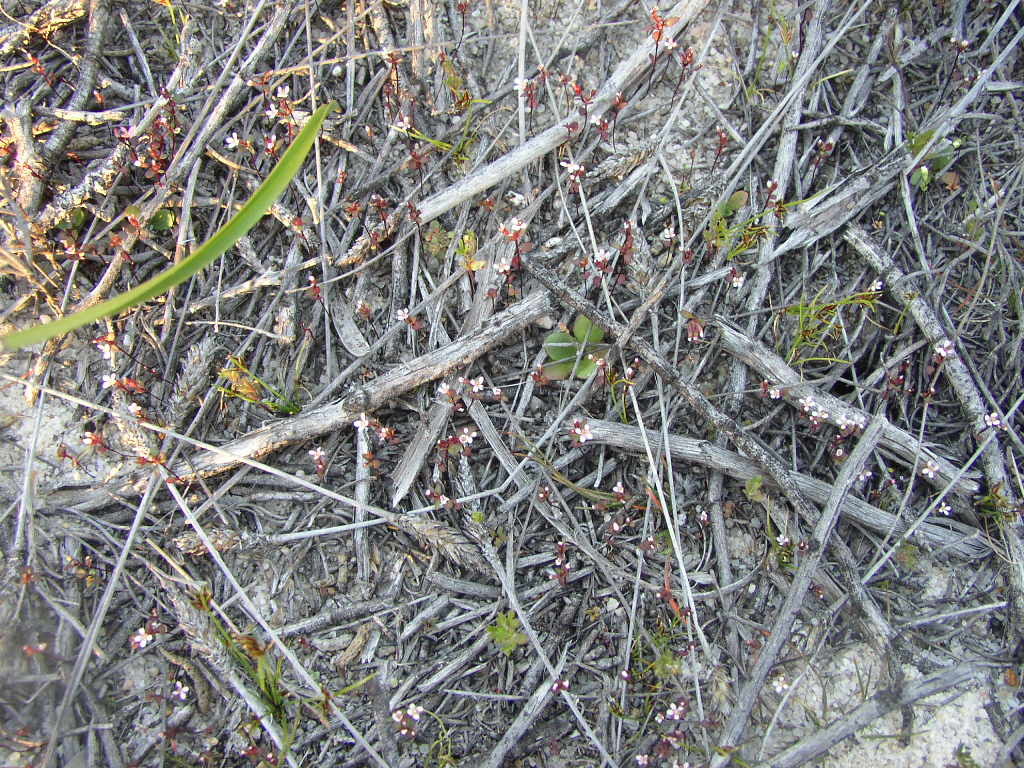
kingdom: Plantae
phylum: Tracheophyta
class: Magnoliopsida
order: Asterales
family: Stylidiaceae
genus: Levenhookia
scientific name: Levenhookia murfetii
